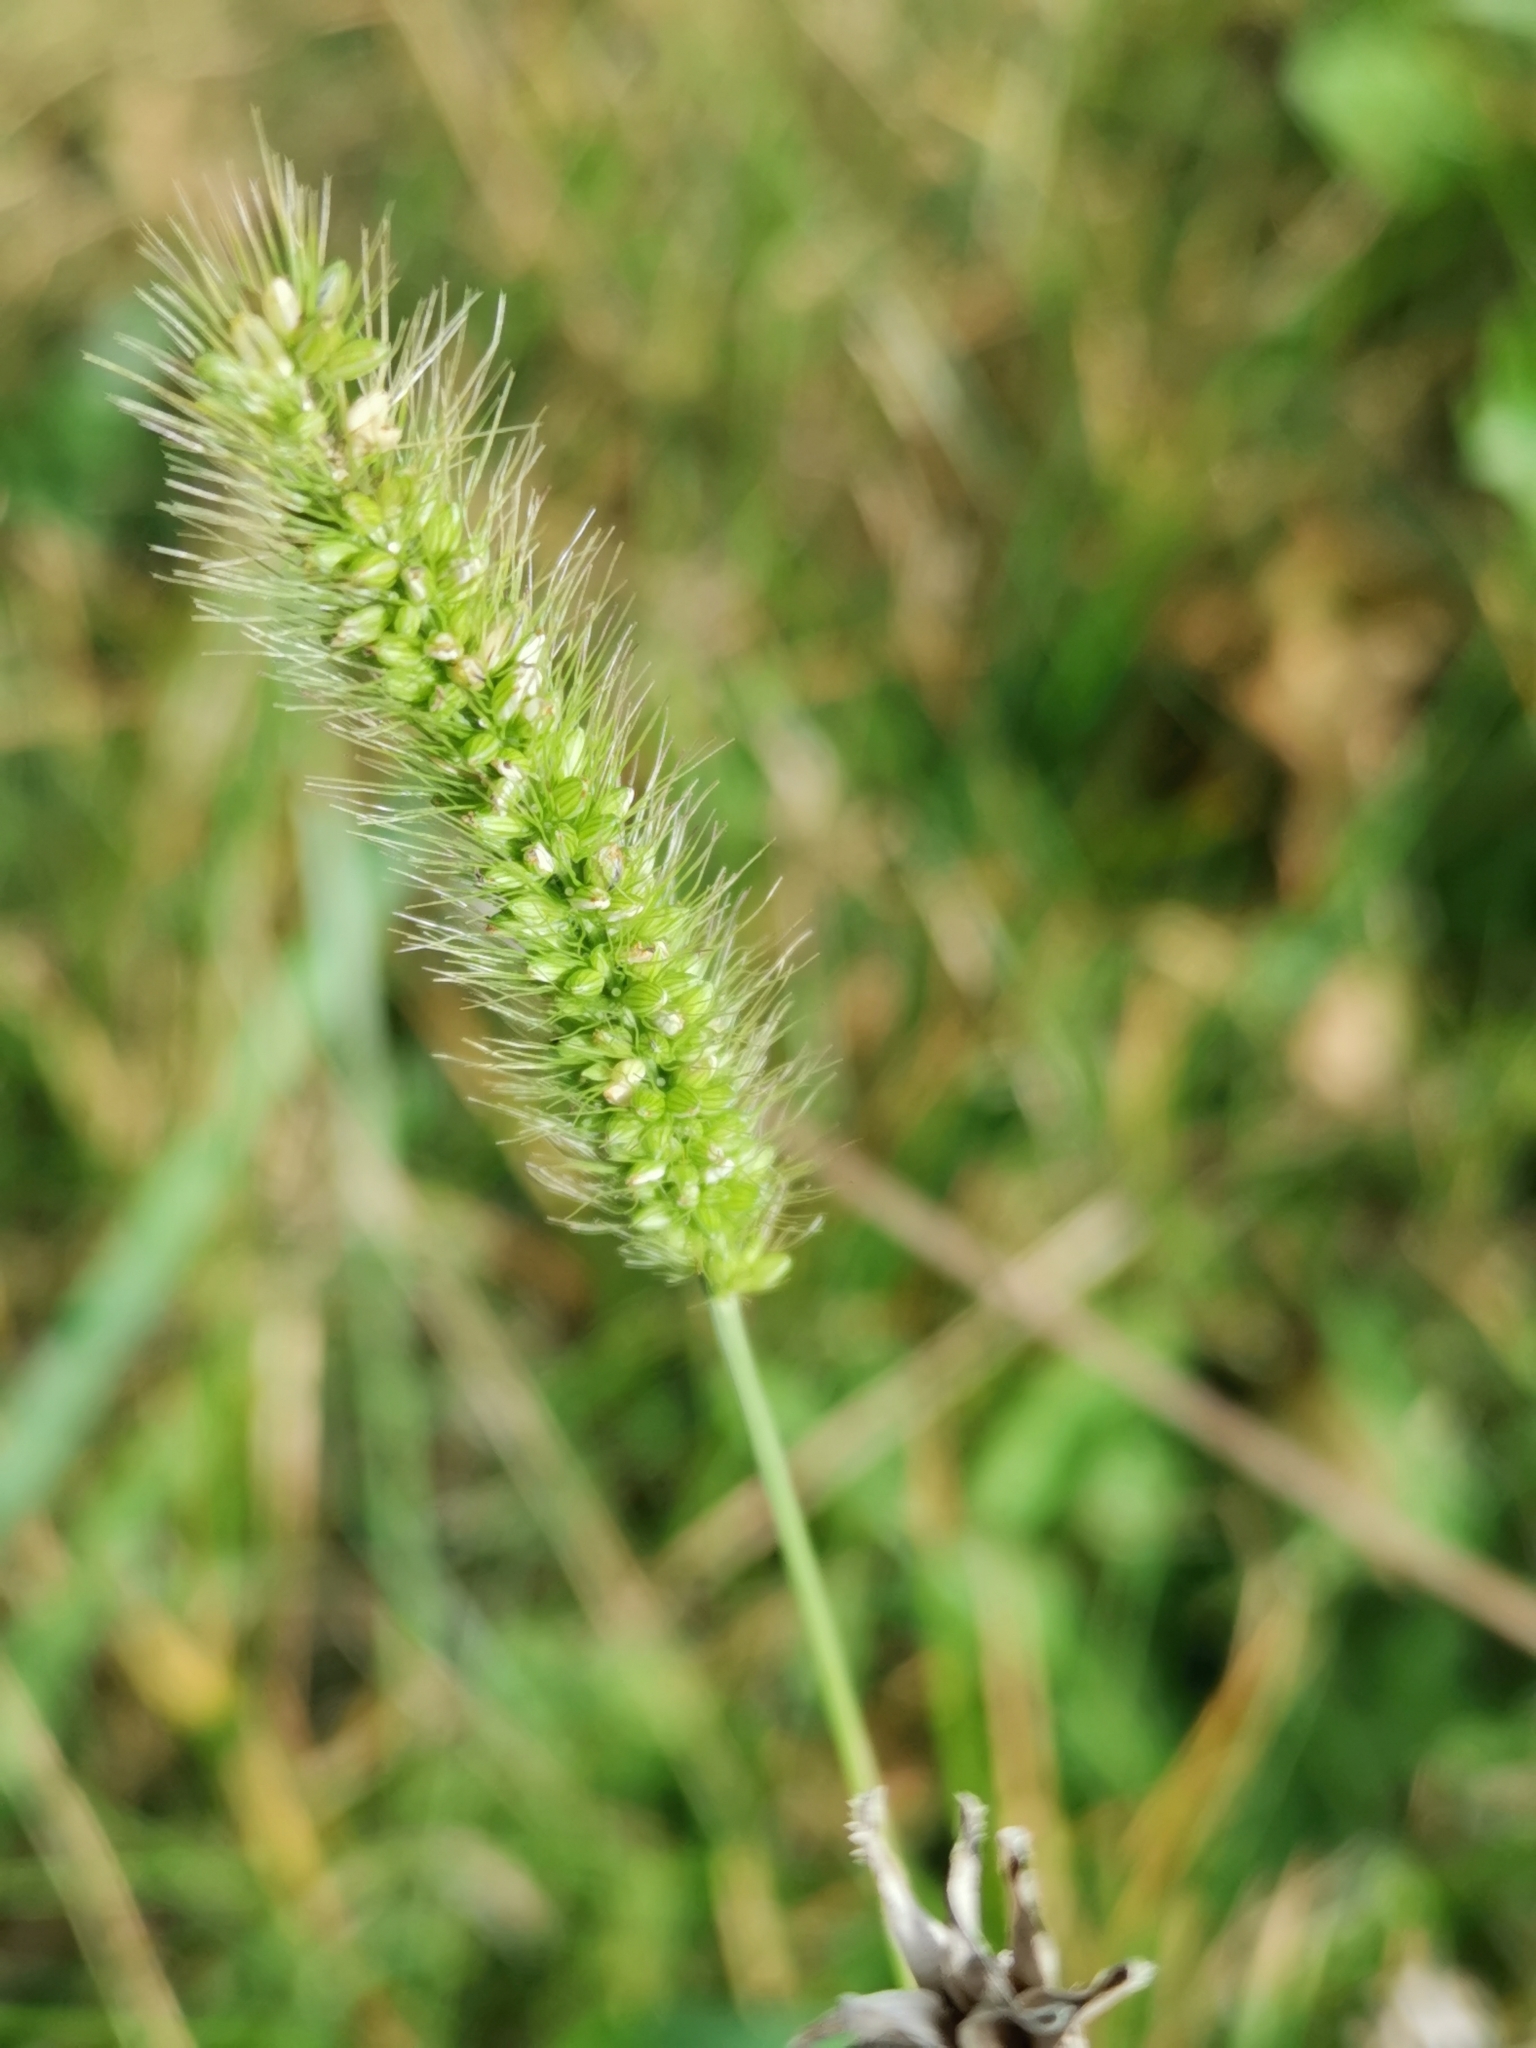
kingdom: Plantae
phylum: Tracheophyta
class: Liliopsida
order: Poales
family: Poaceae
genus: Setaria
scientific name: Setaria viridis
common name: Green bristlegrass
